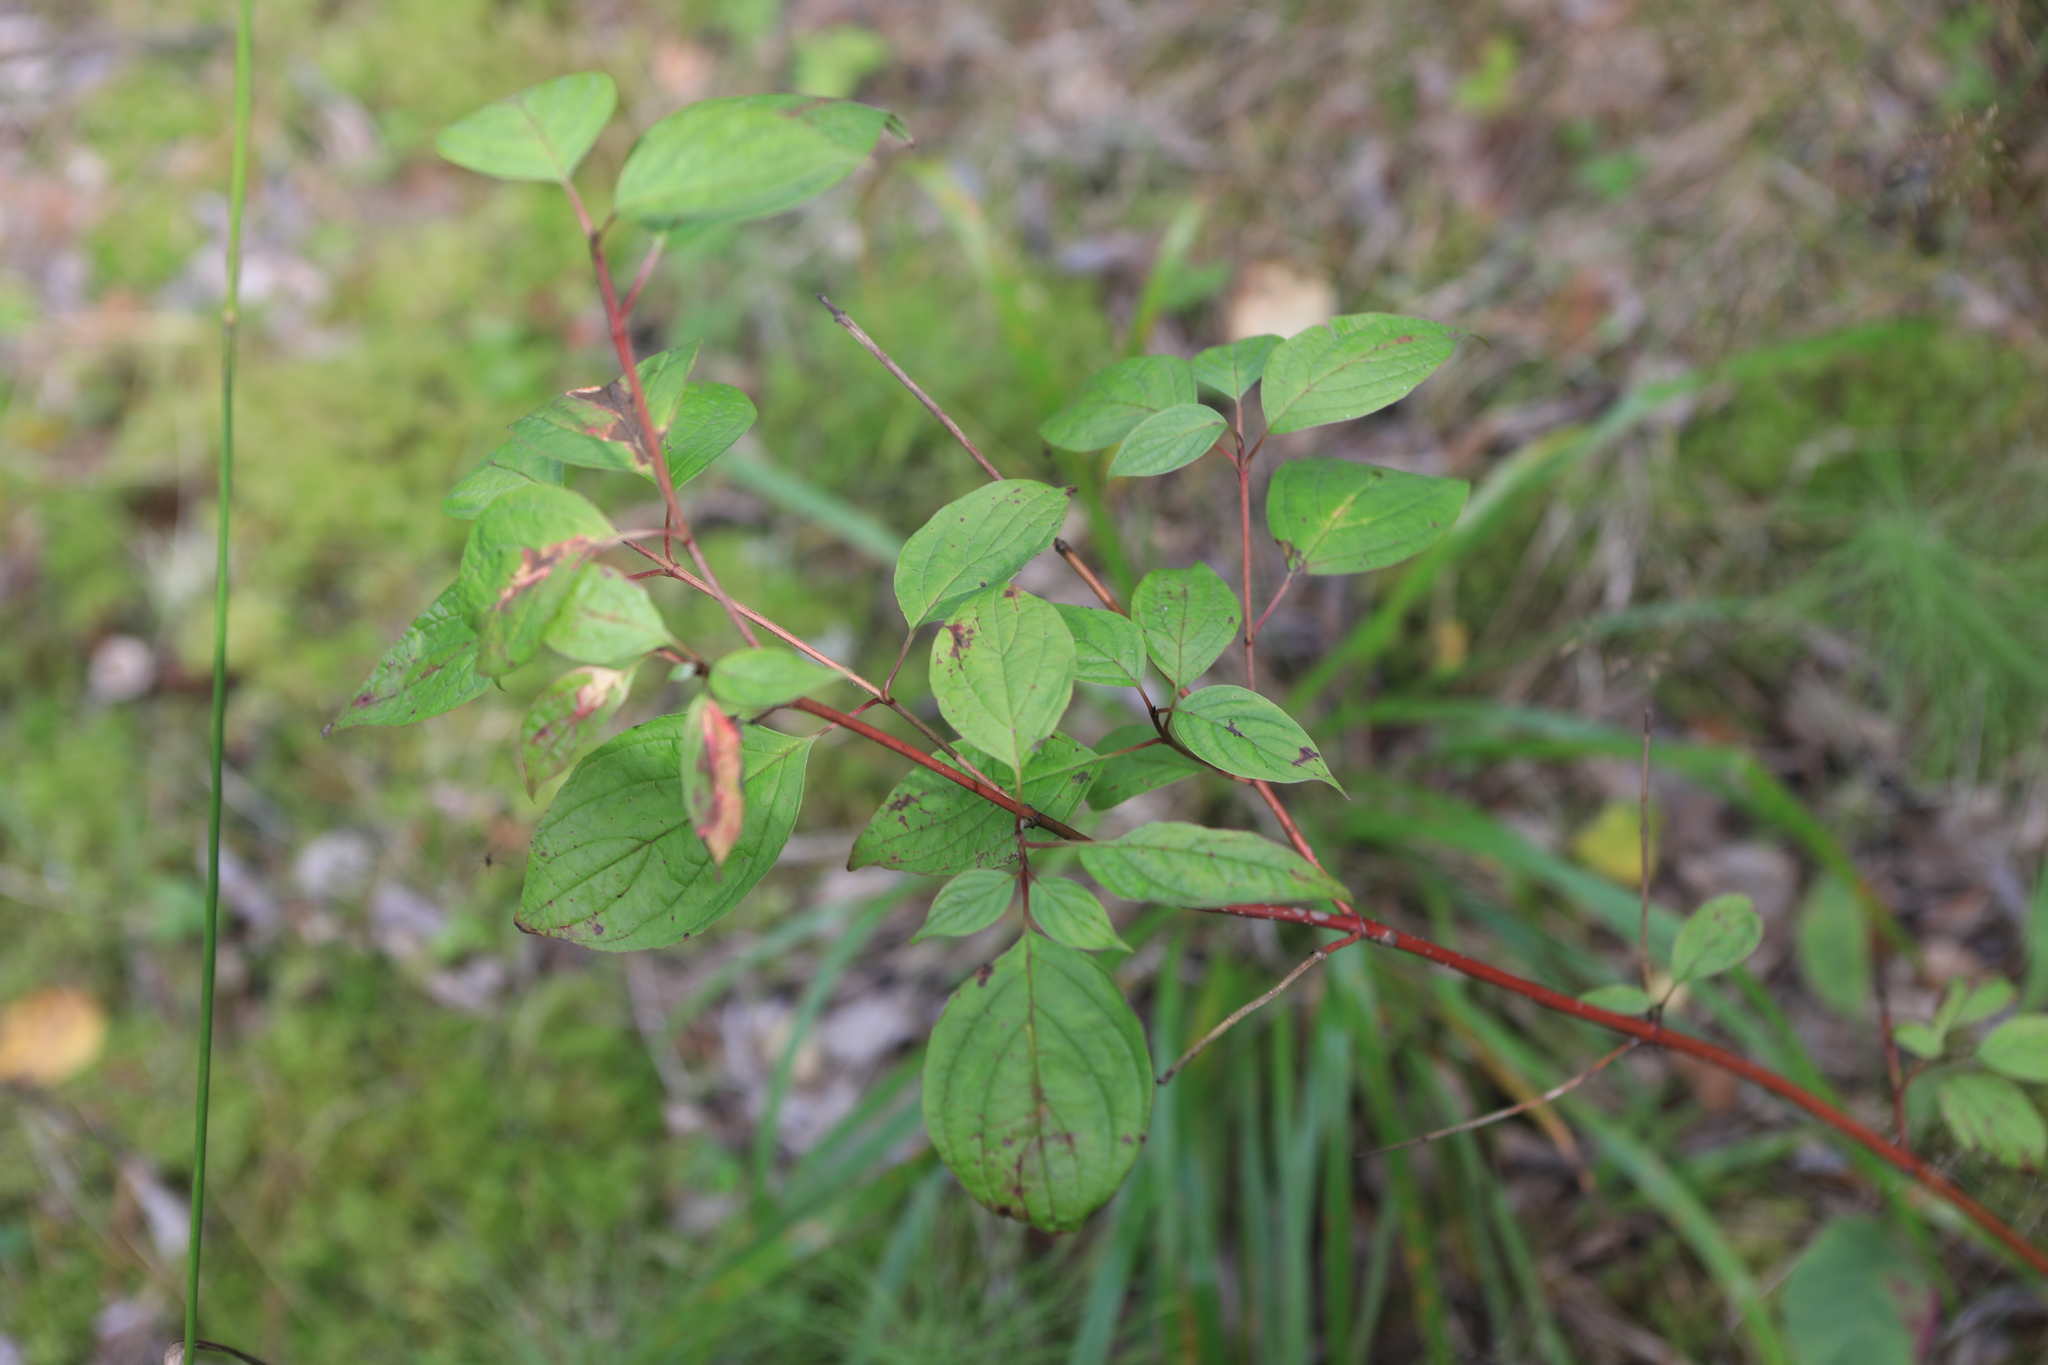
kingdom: Plantae
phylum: Tracheophyta
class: Magnoliopsida
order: Cornales
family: Cornaceae
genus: Cornus
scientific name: Cornus alba
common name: White dogwood
